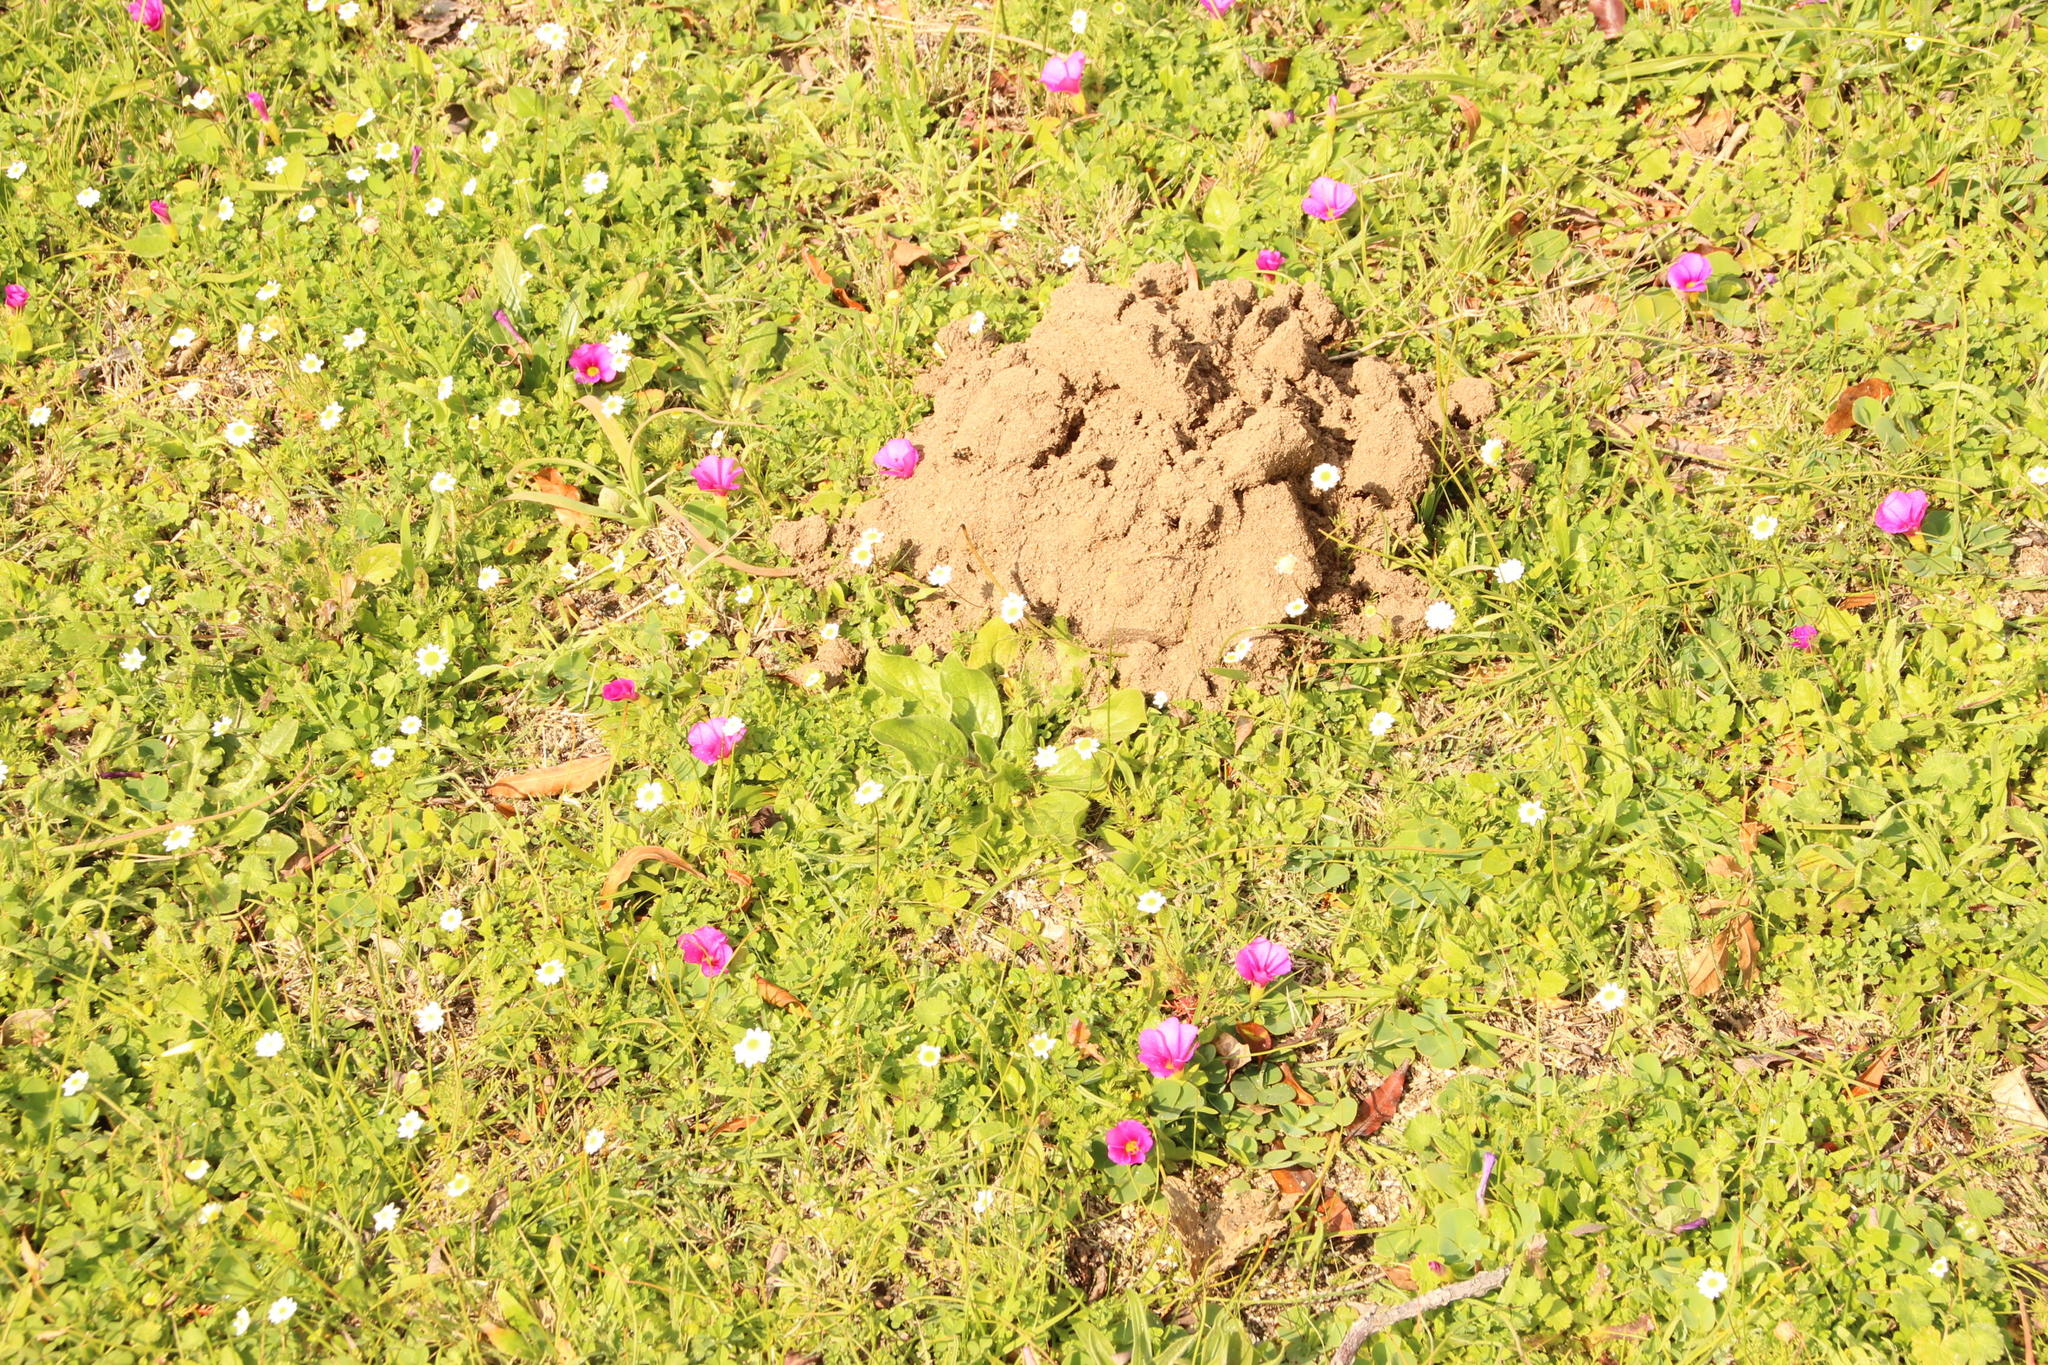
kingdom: Plantae
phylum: Tracheophyta
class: Magnoliopsida
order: Oxalidales
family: Oxalidaceae
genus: Oxalis
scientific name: Oxalis purpurea
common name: Purple woodsorrel
